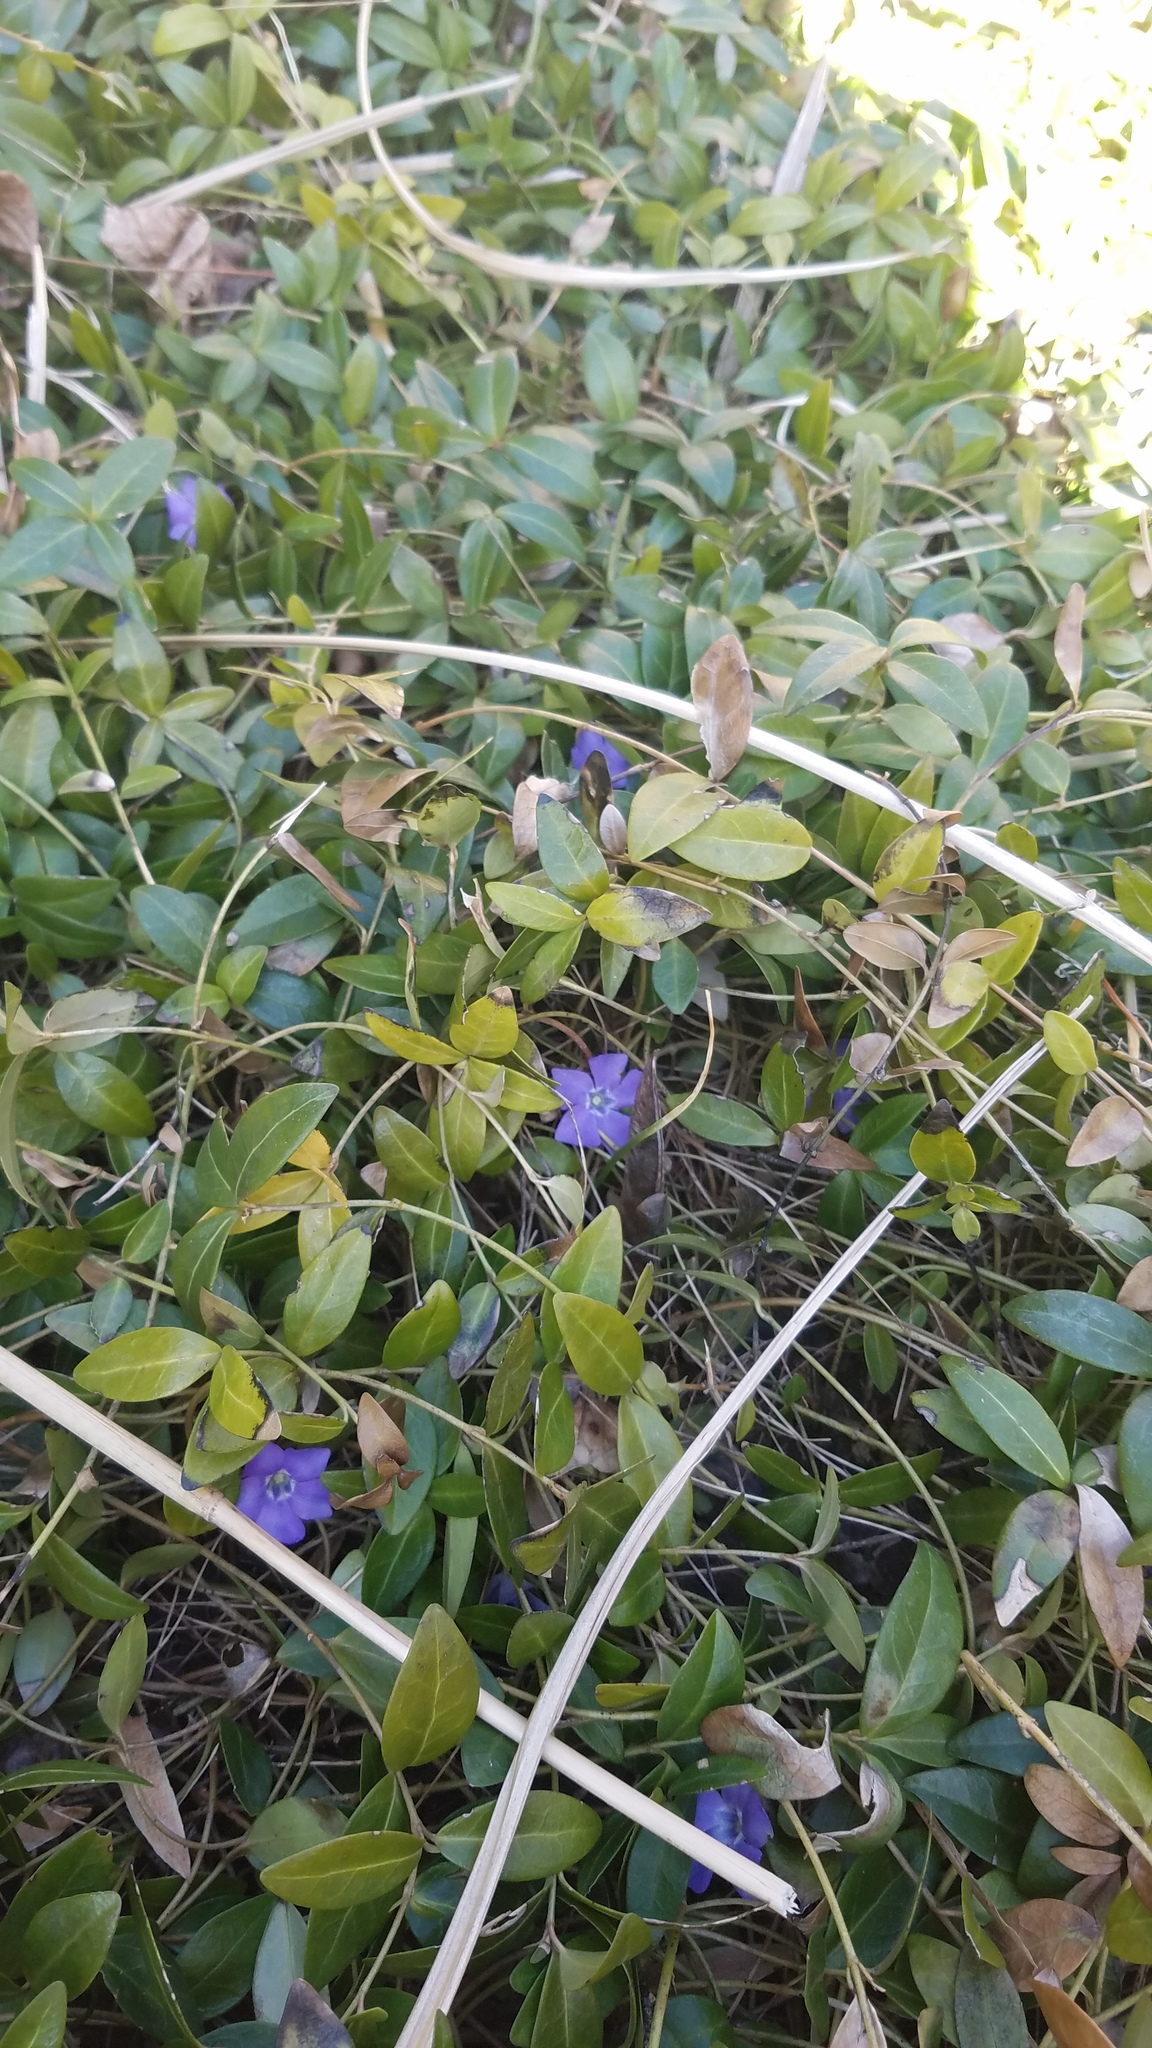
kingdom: Plantae
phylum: Tracheophyta
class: Magnoliopsida
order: Gentianales
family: Apocynaceae
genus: Vinca
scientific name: Vinca minor
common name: Lesser periwinkle
